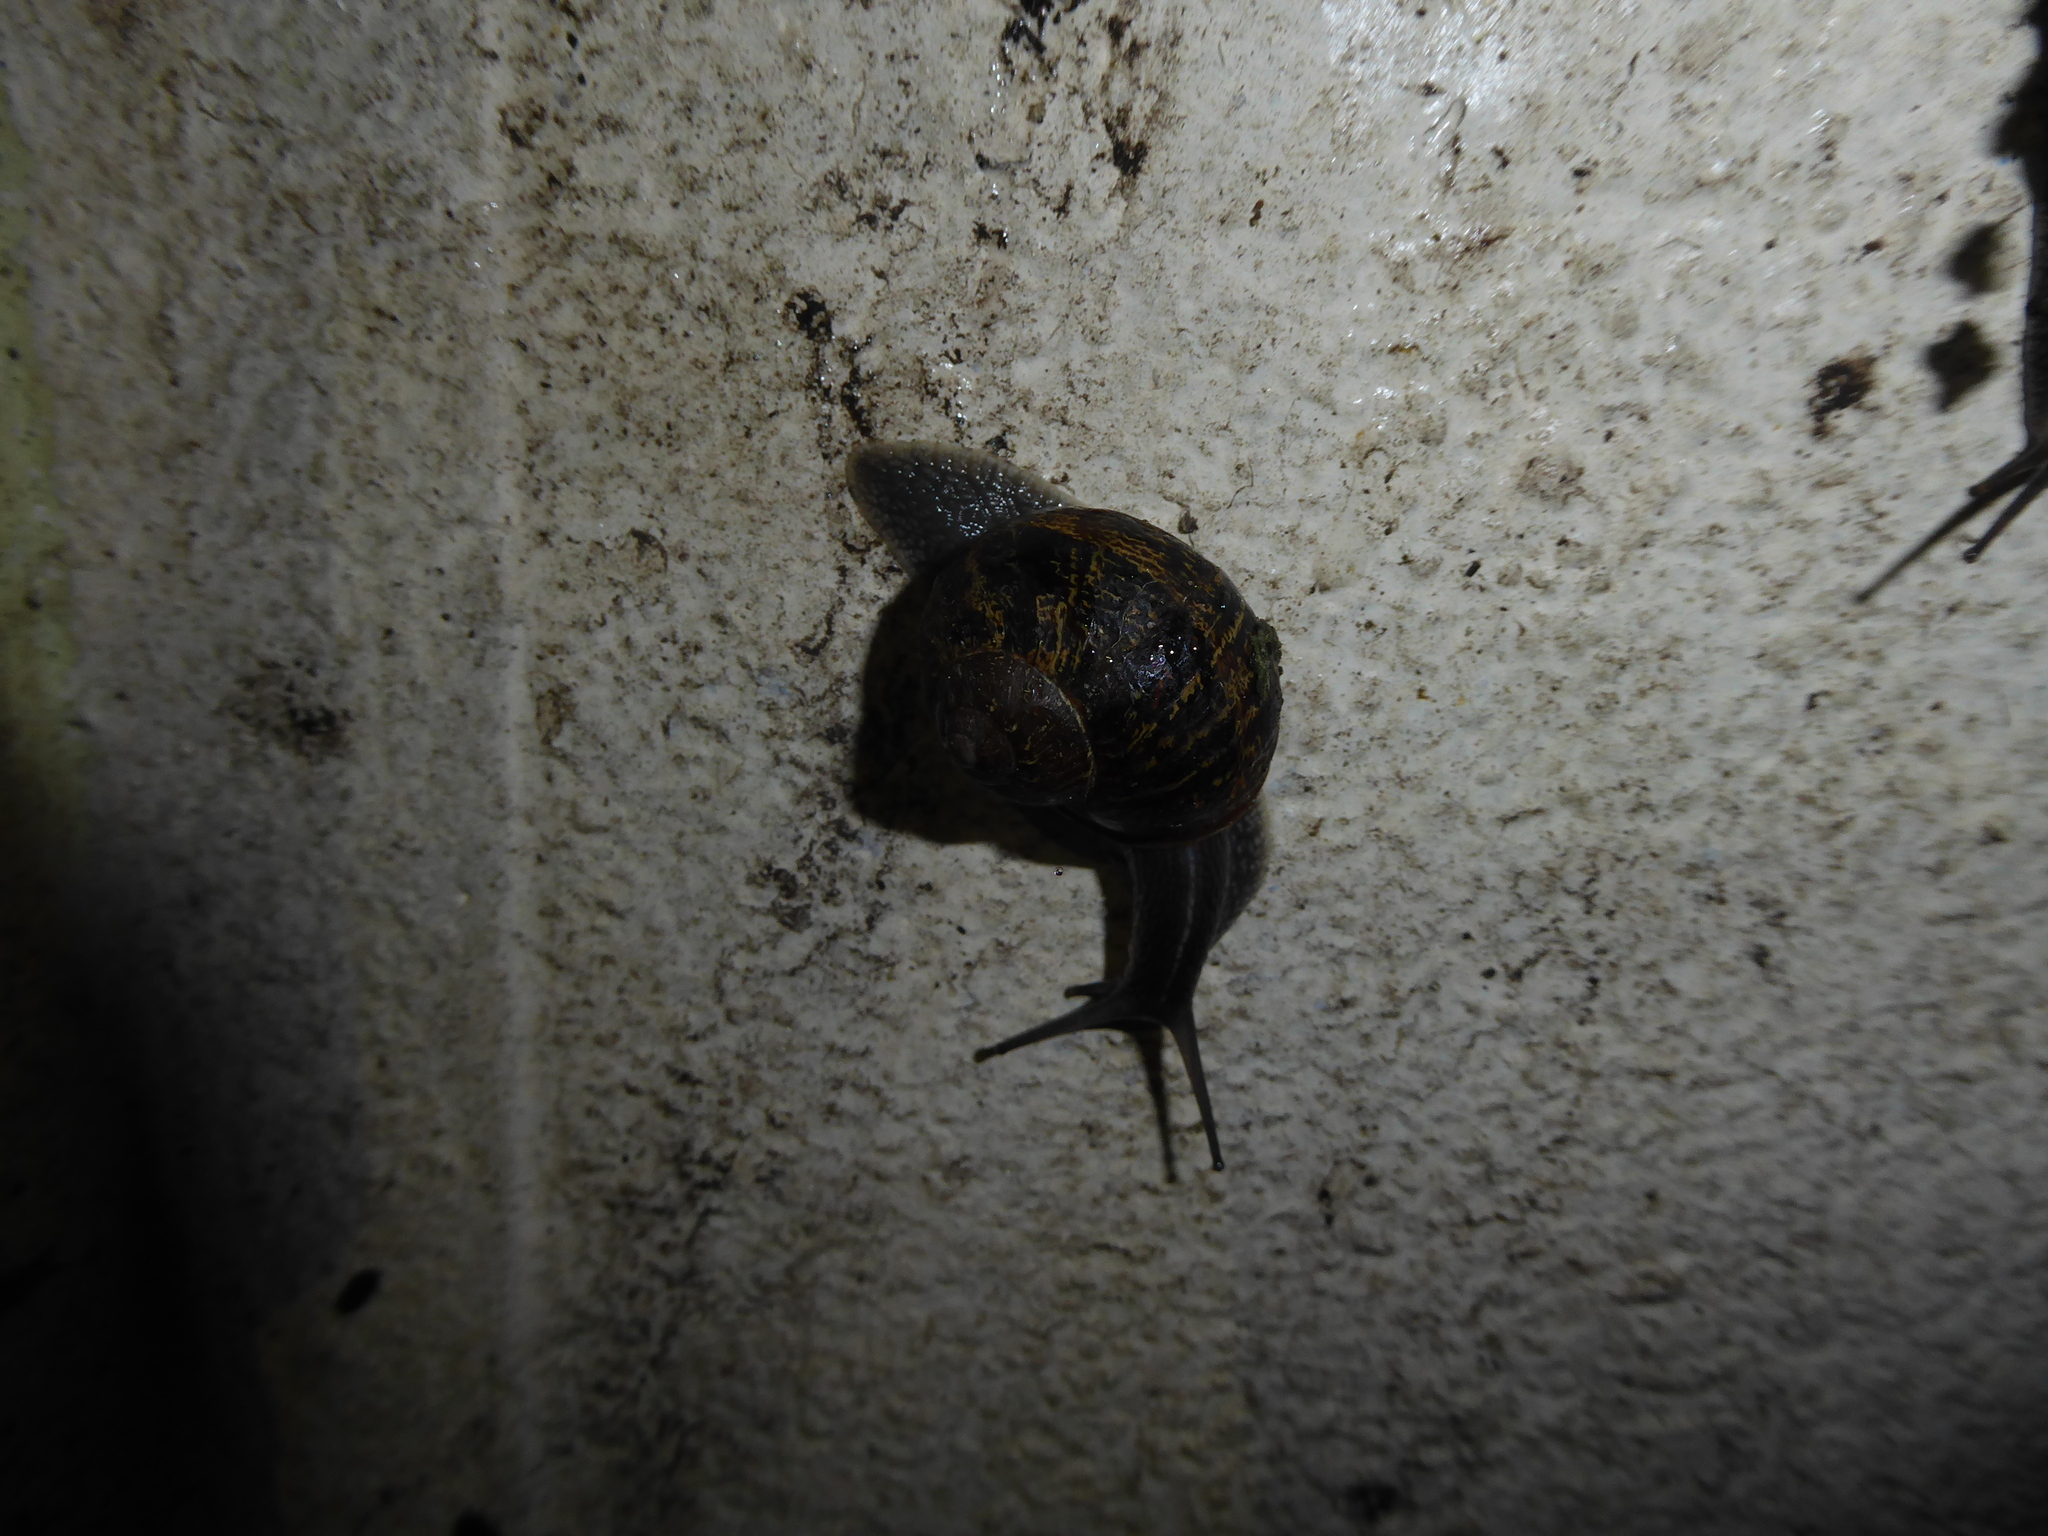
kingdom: Animalia
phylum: Mollusca
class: Gastropoda
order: Stylommatophora
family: Helicidae
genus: Cornu
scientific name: Cornu aspersum
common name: Brown garden snail
